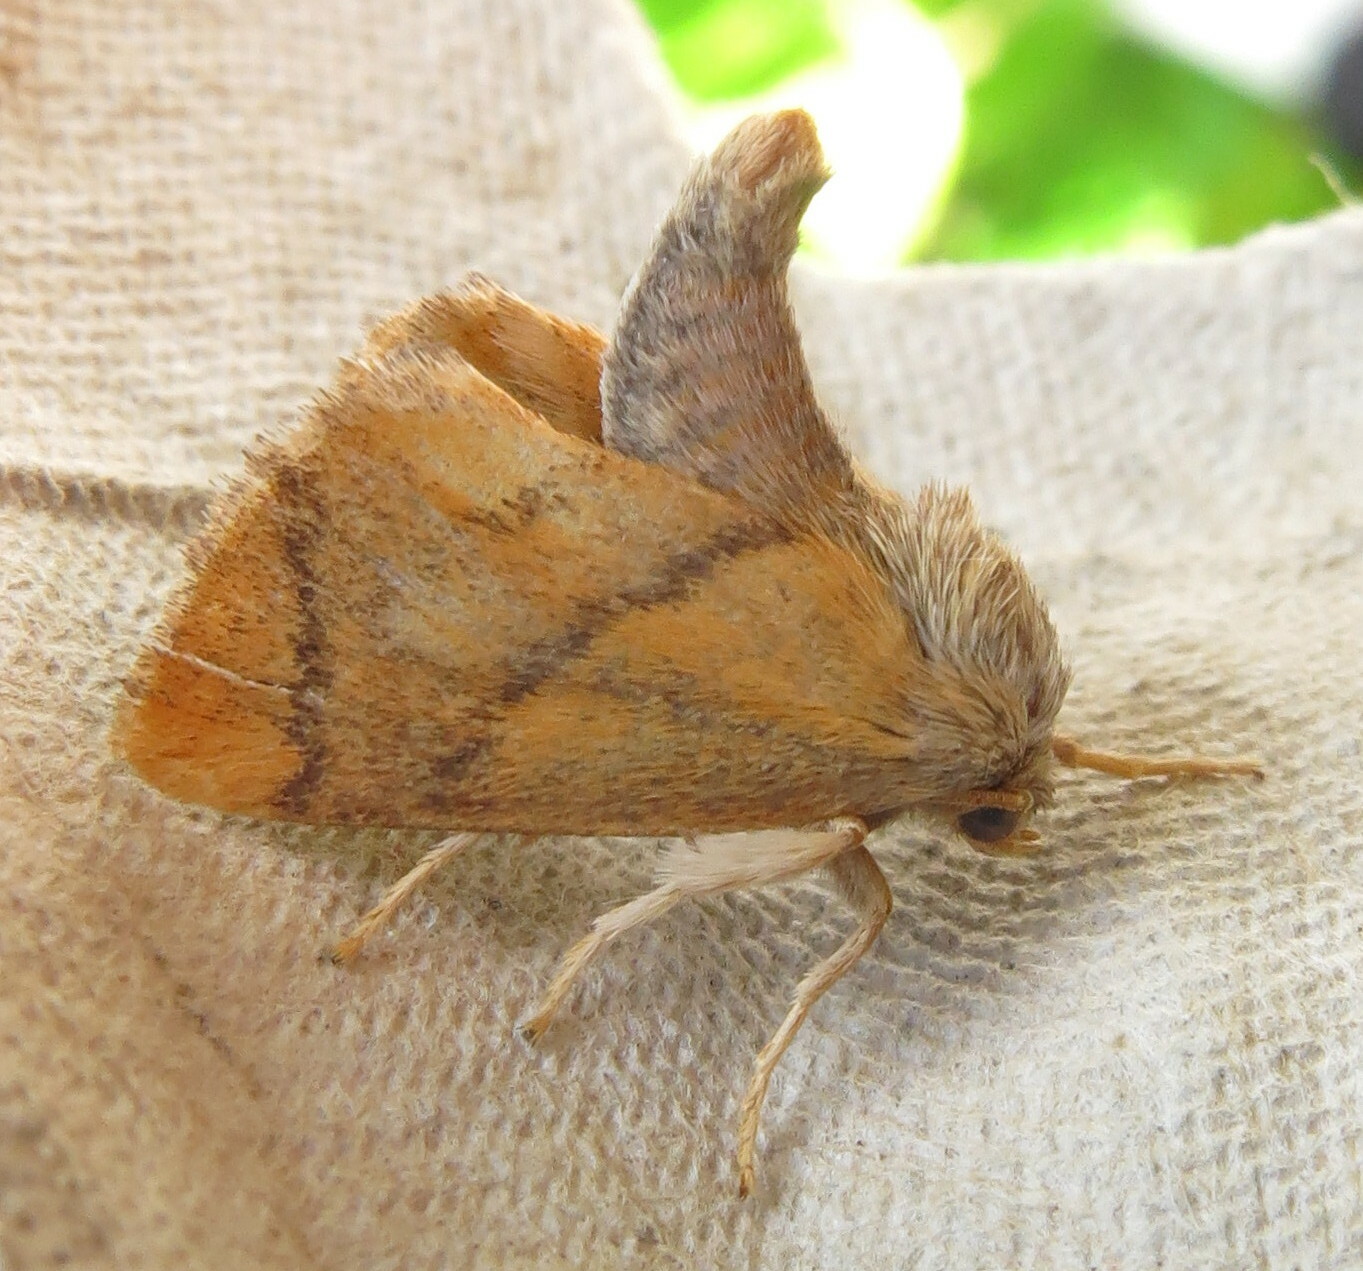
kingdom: Animalia
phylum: Arthropoda
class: Insecta
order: Lepidoptera
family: Limacodidae
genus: Apoda
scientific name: Apoda limacodes
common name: Festoon
